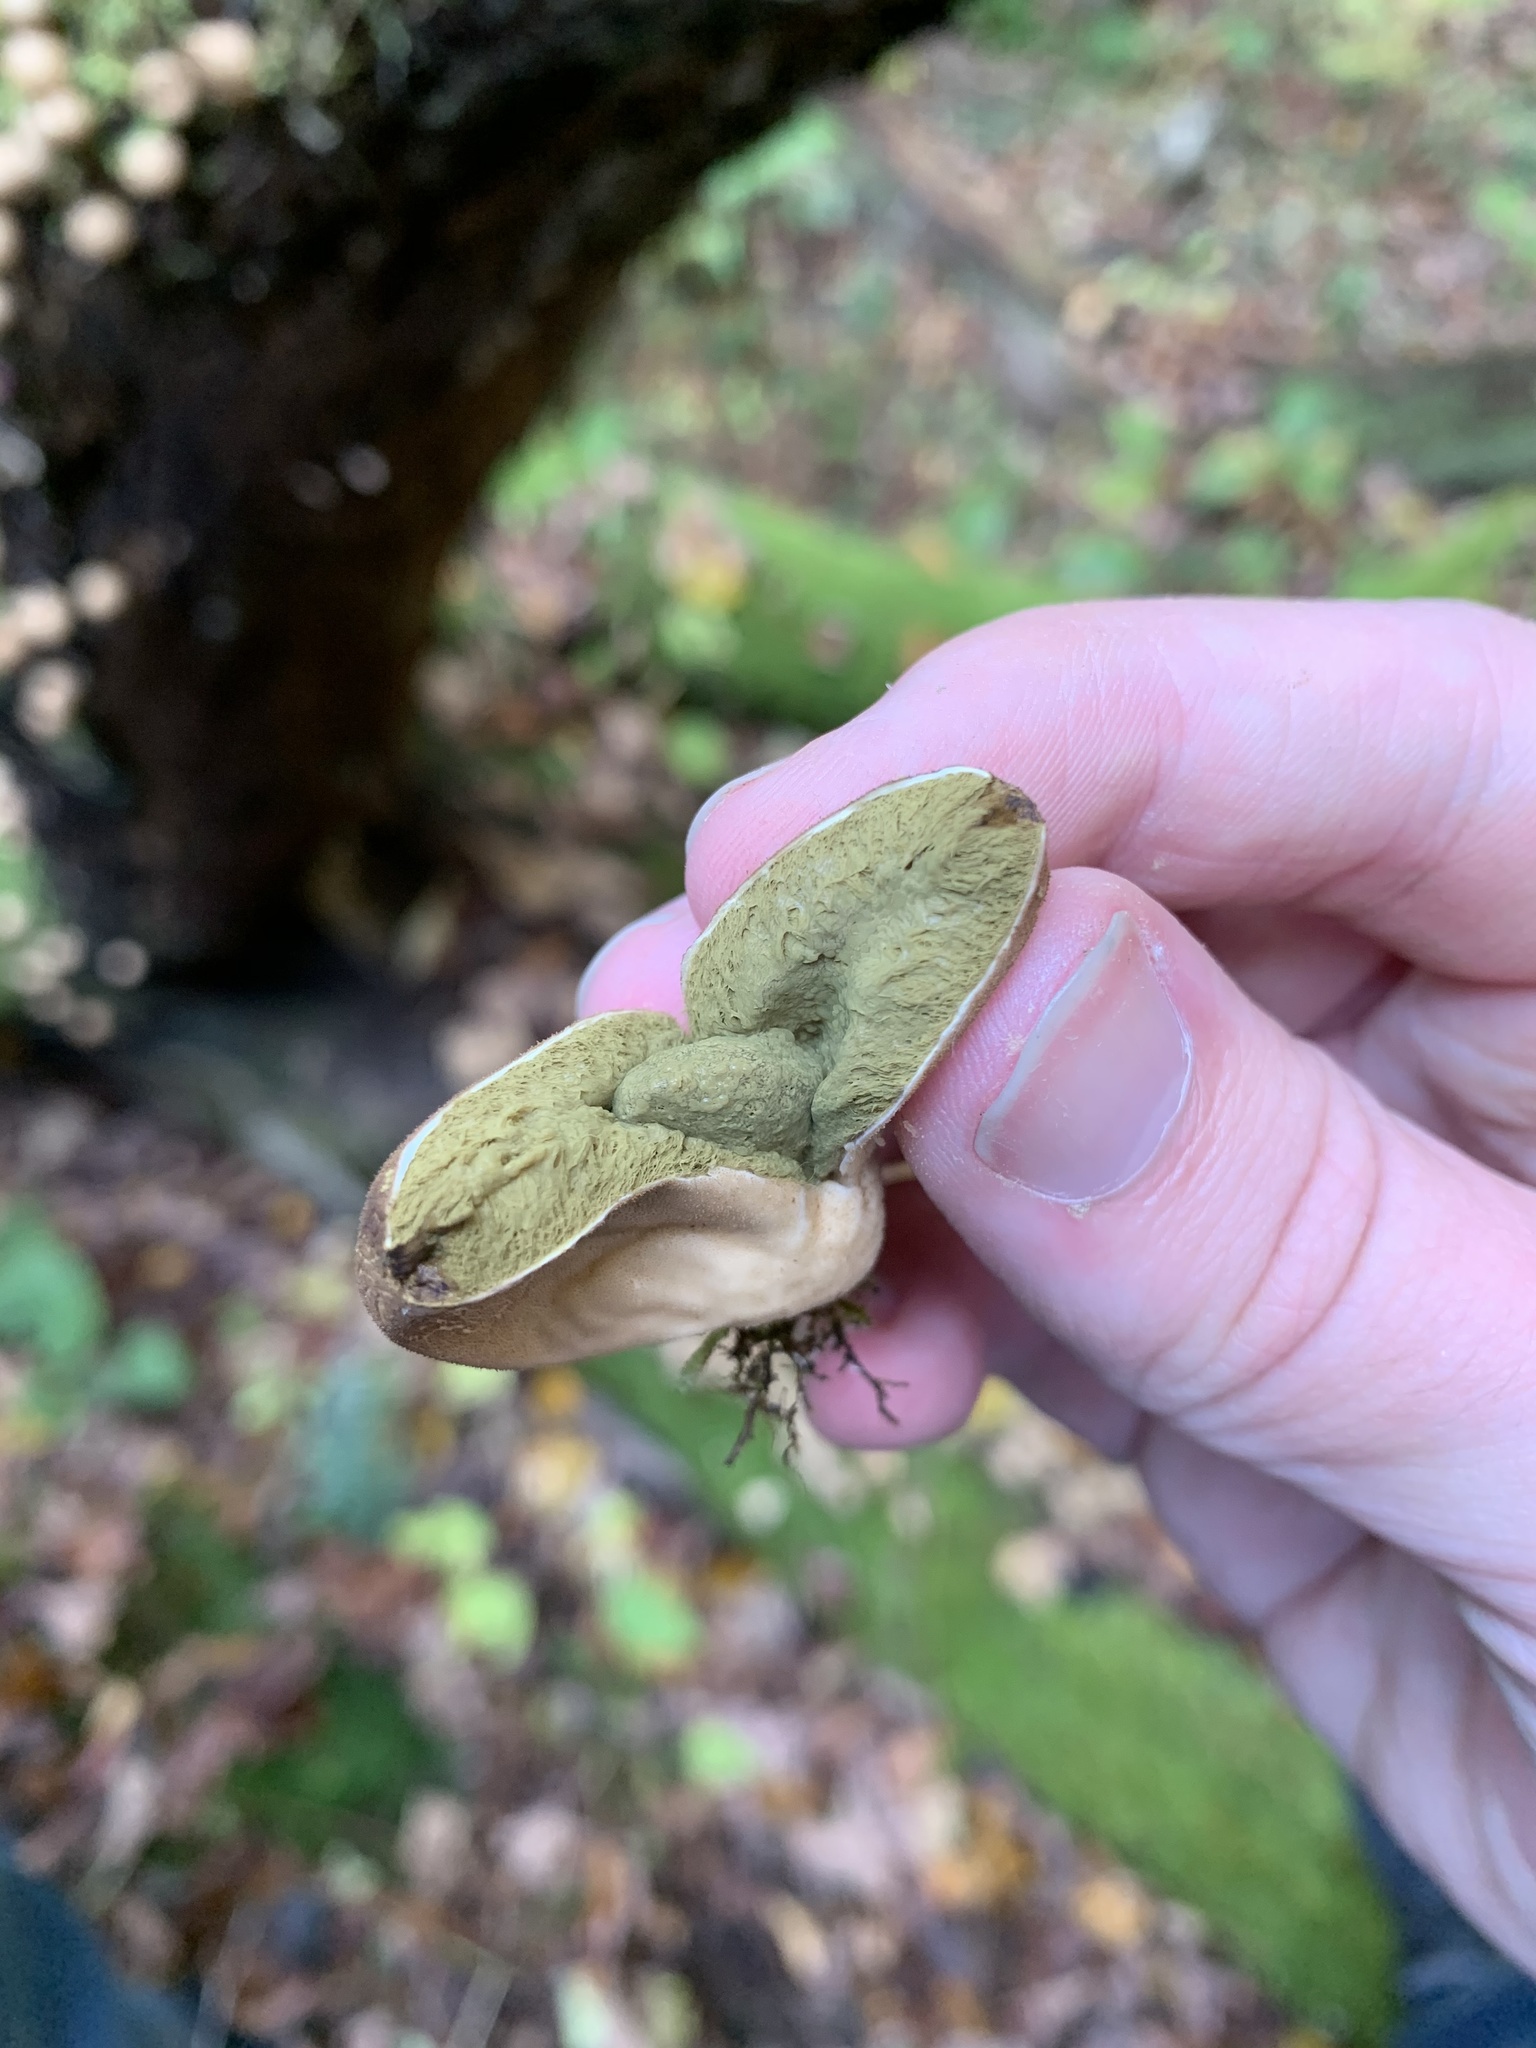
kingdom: Fungi
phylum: Basidiomycota
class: Agaricomycetes
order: Agaricales
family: Lycoperdaceae
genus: Apioperdon
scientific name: Apioperdon pyriforme
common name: Pear-shaped puffball
